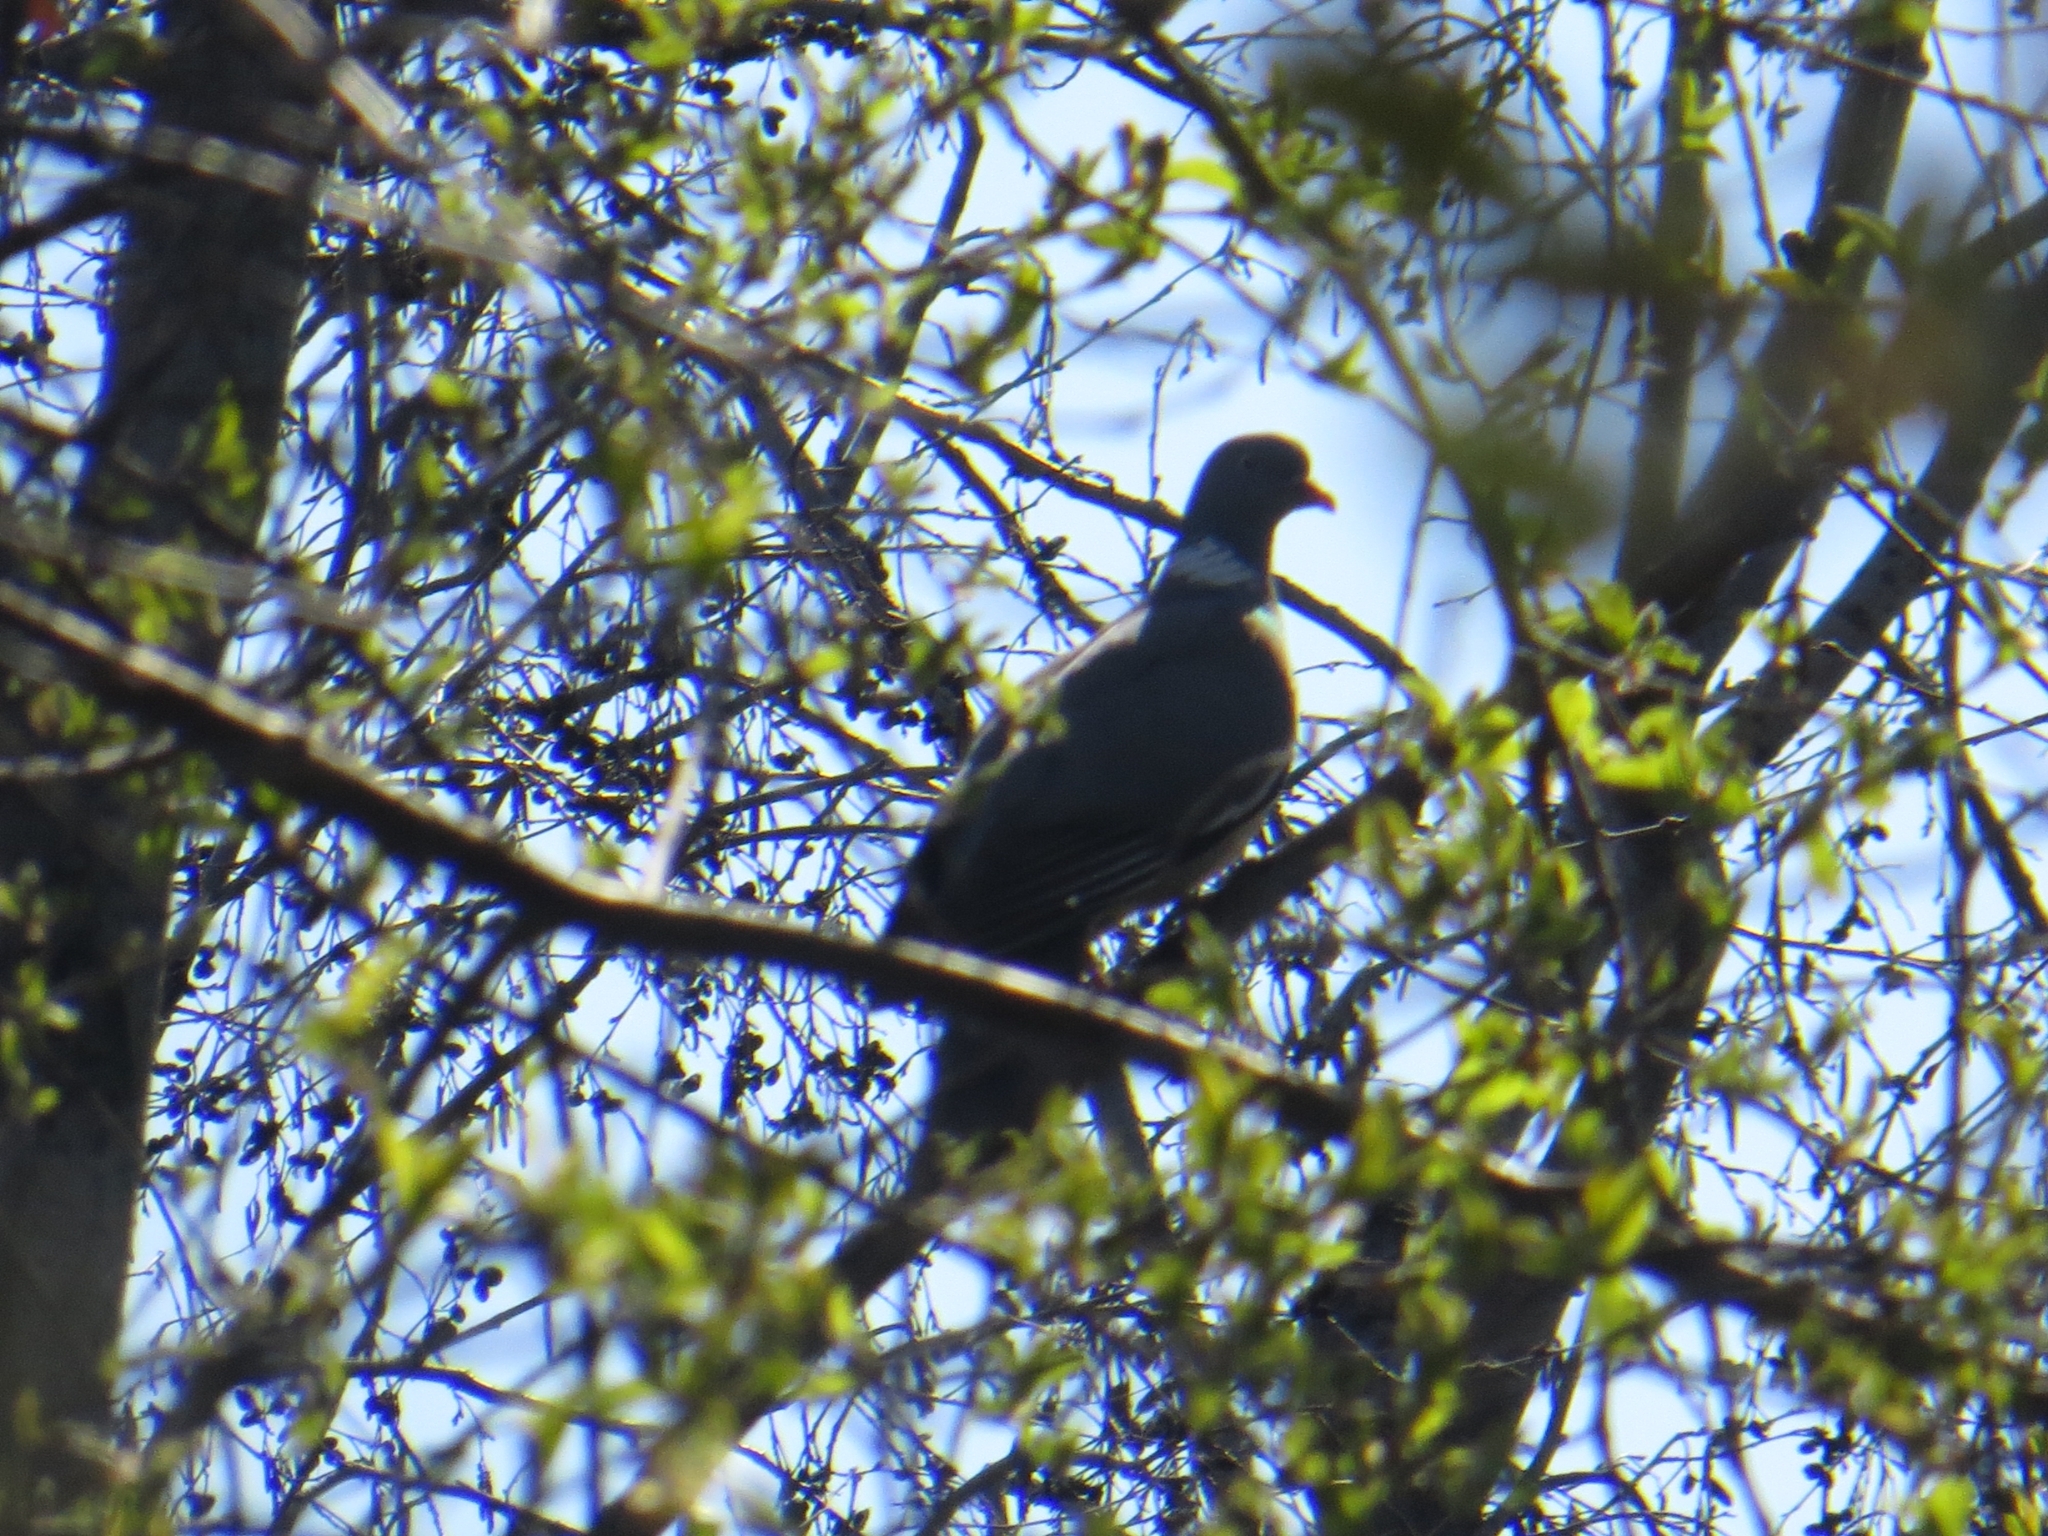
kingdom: Animalia
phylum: Chordata
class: Aves
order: Columbiformes
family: Columbidae
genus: Columba
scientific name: Columba palumbus
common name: Common wood pigeon
